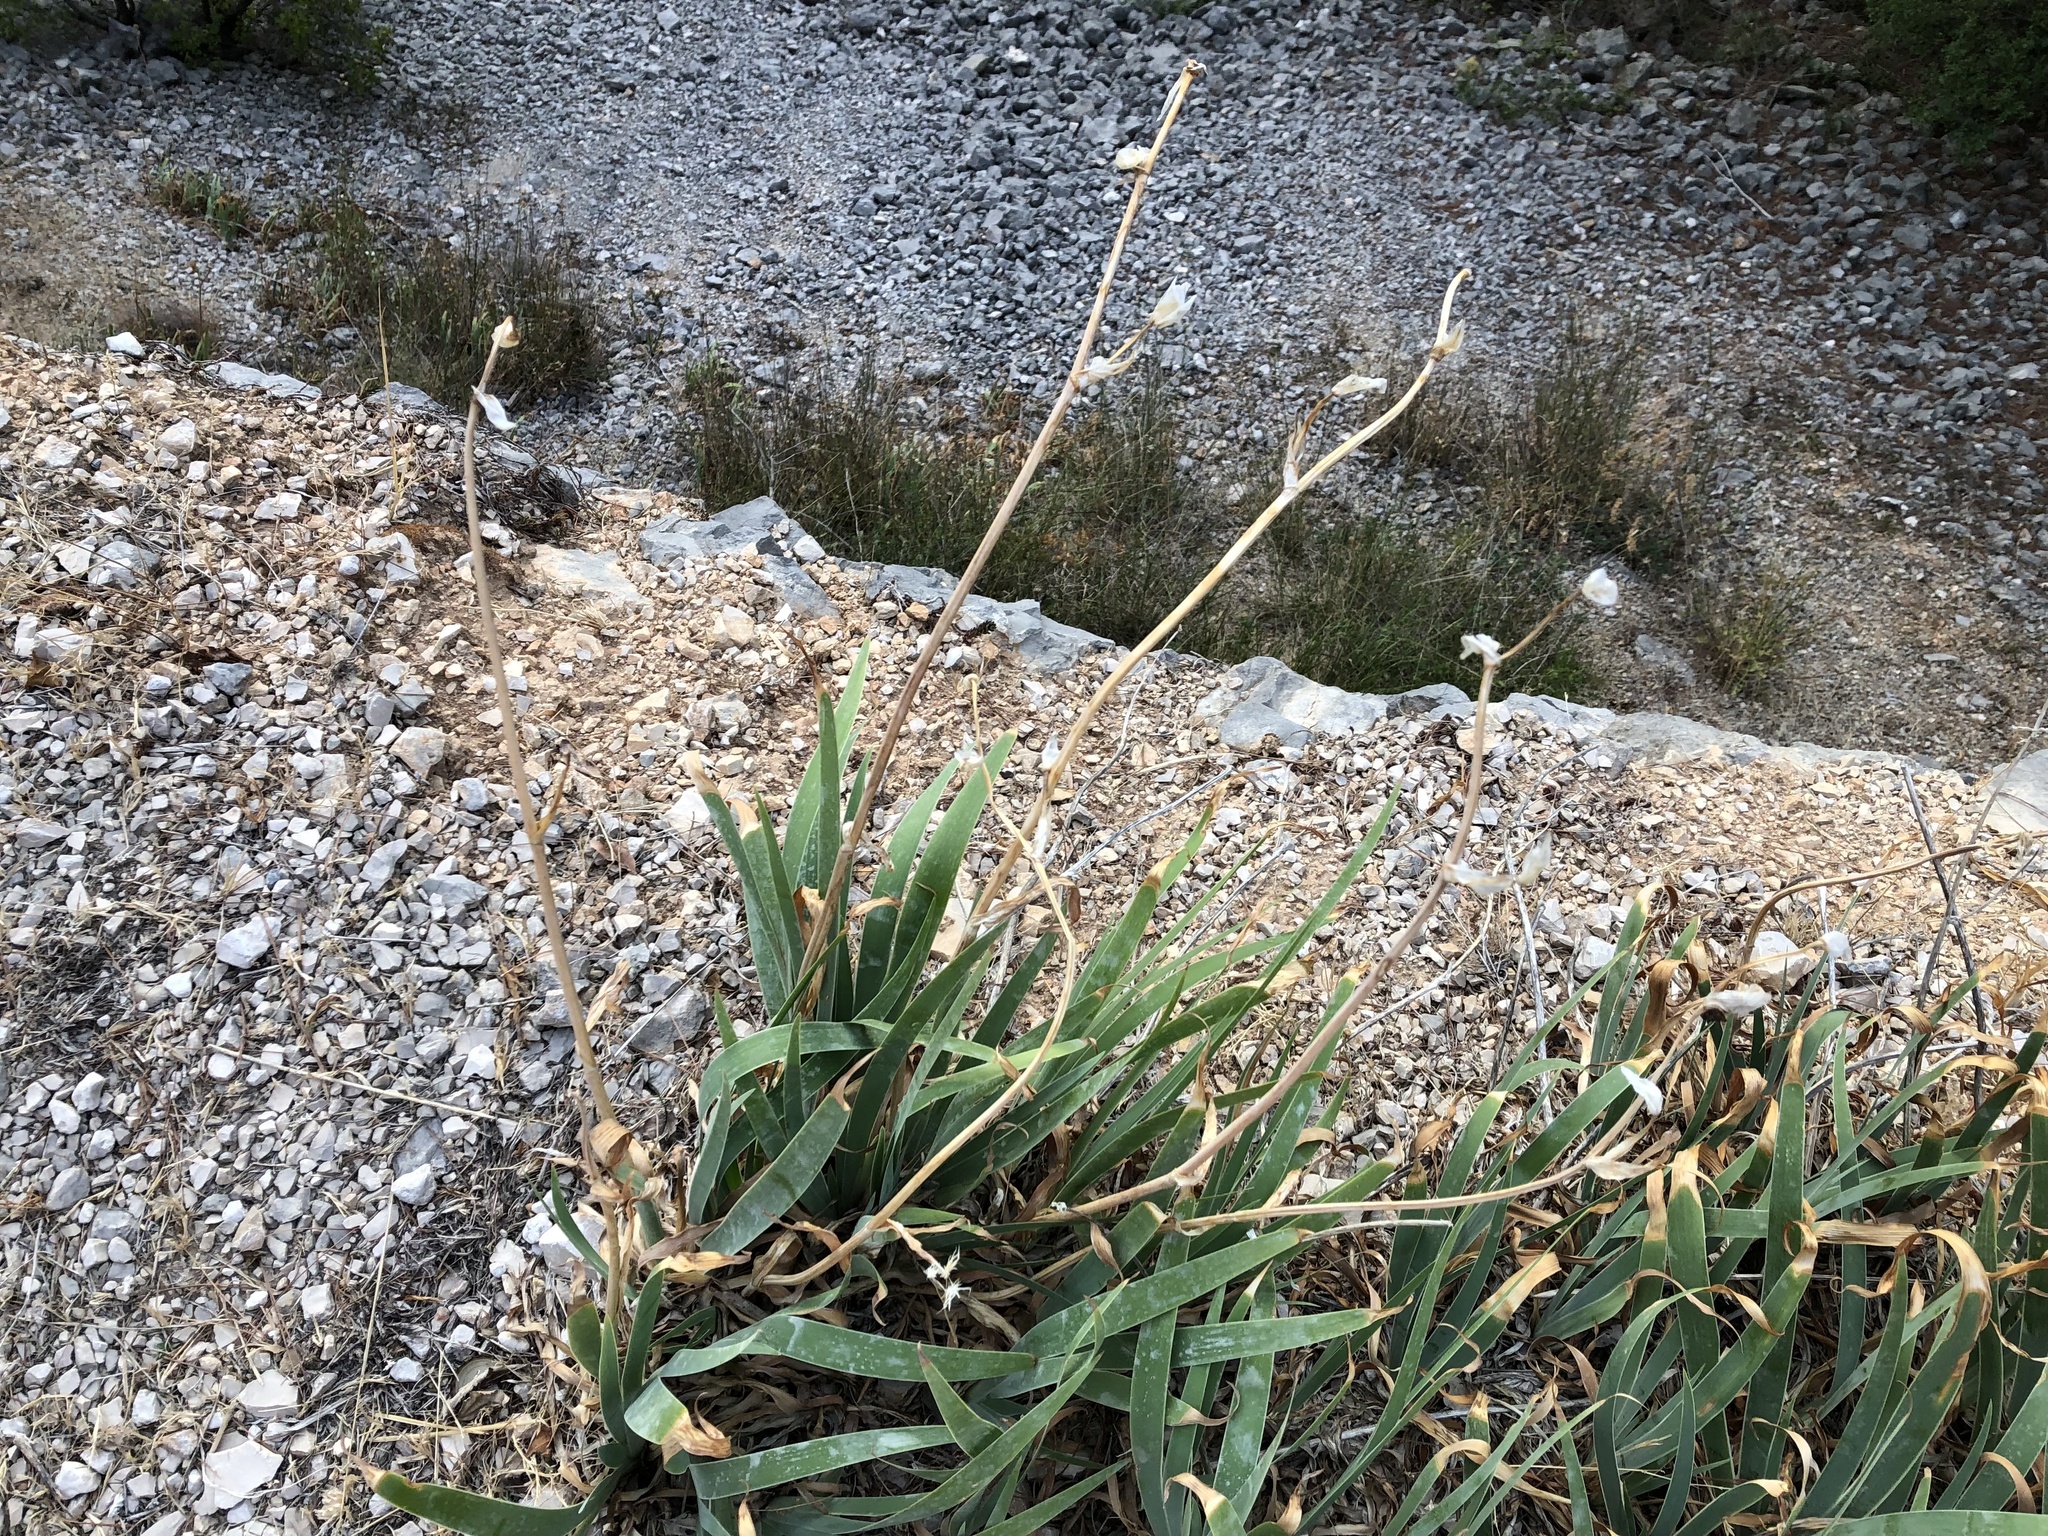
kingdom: Plantae
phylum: Tracheophyta
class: Liliopsida
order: Asparagales
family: Iridaceae
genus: Iris
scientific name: Iris pallida
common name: Sweet iris
